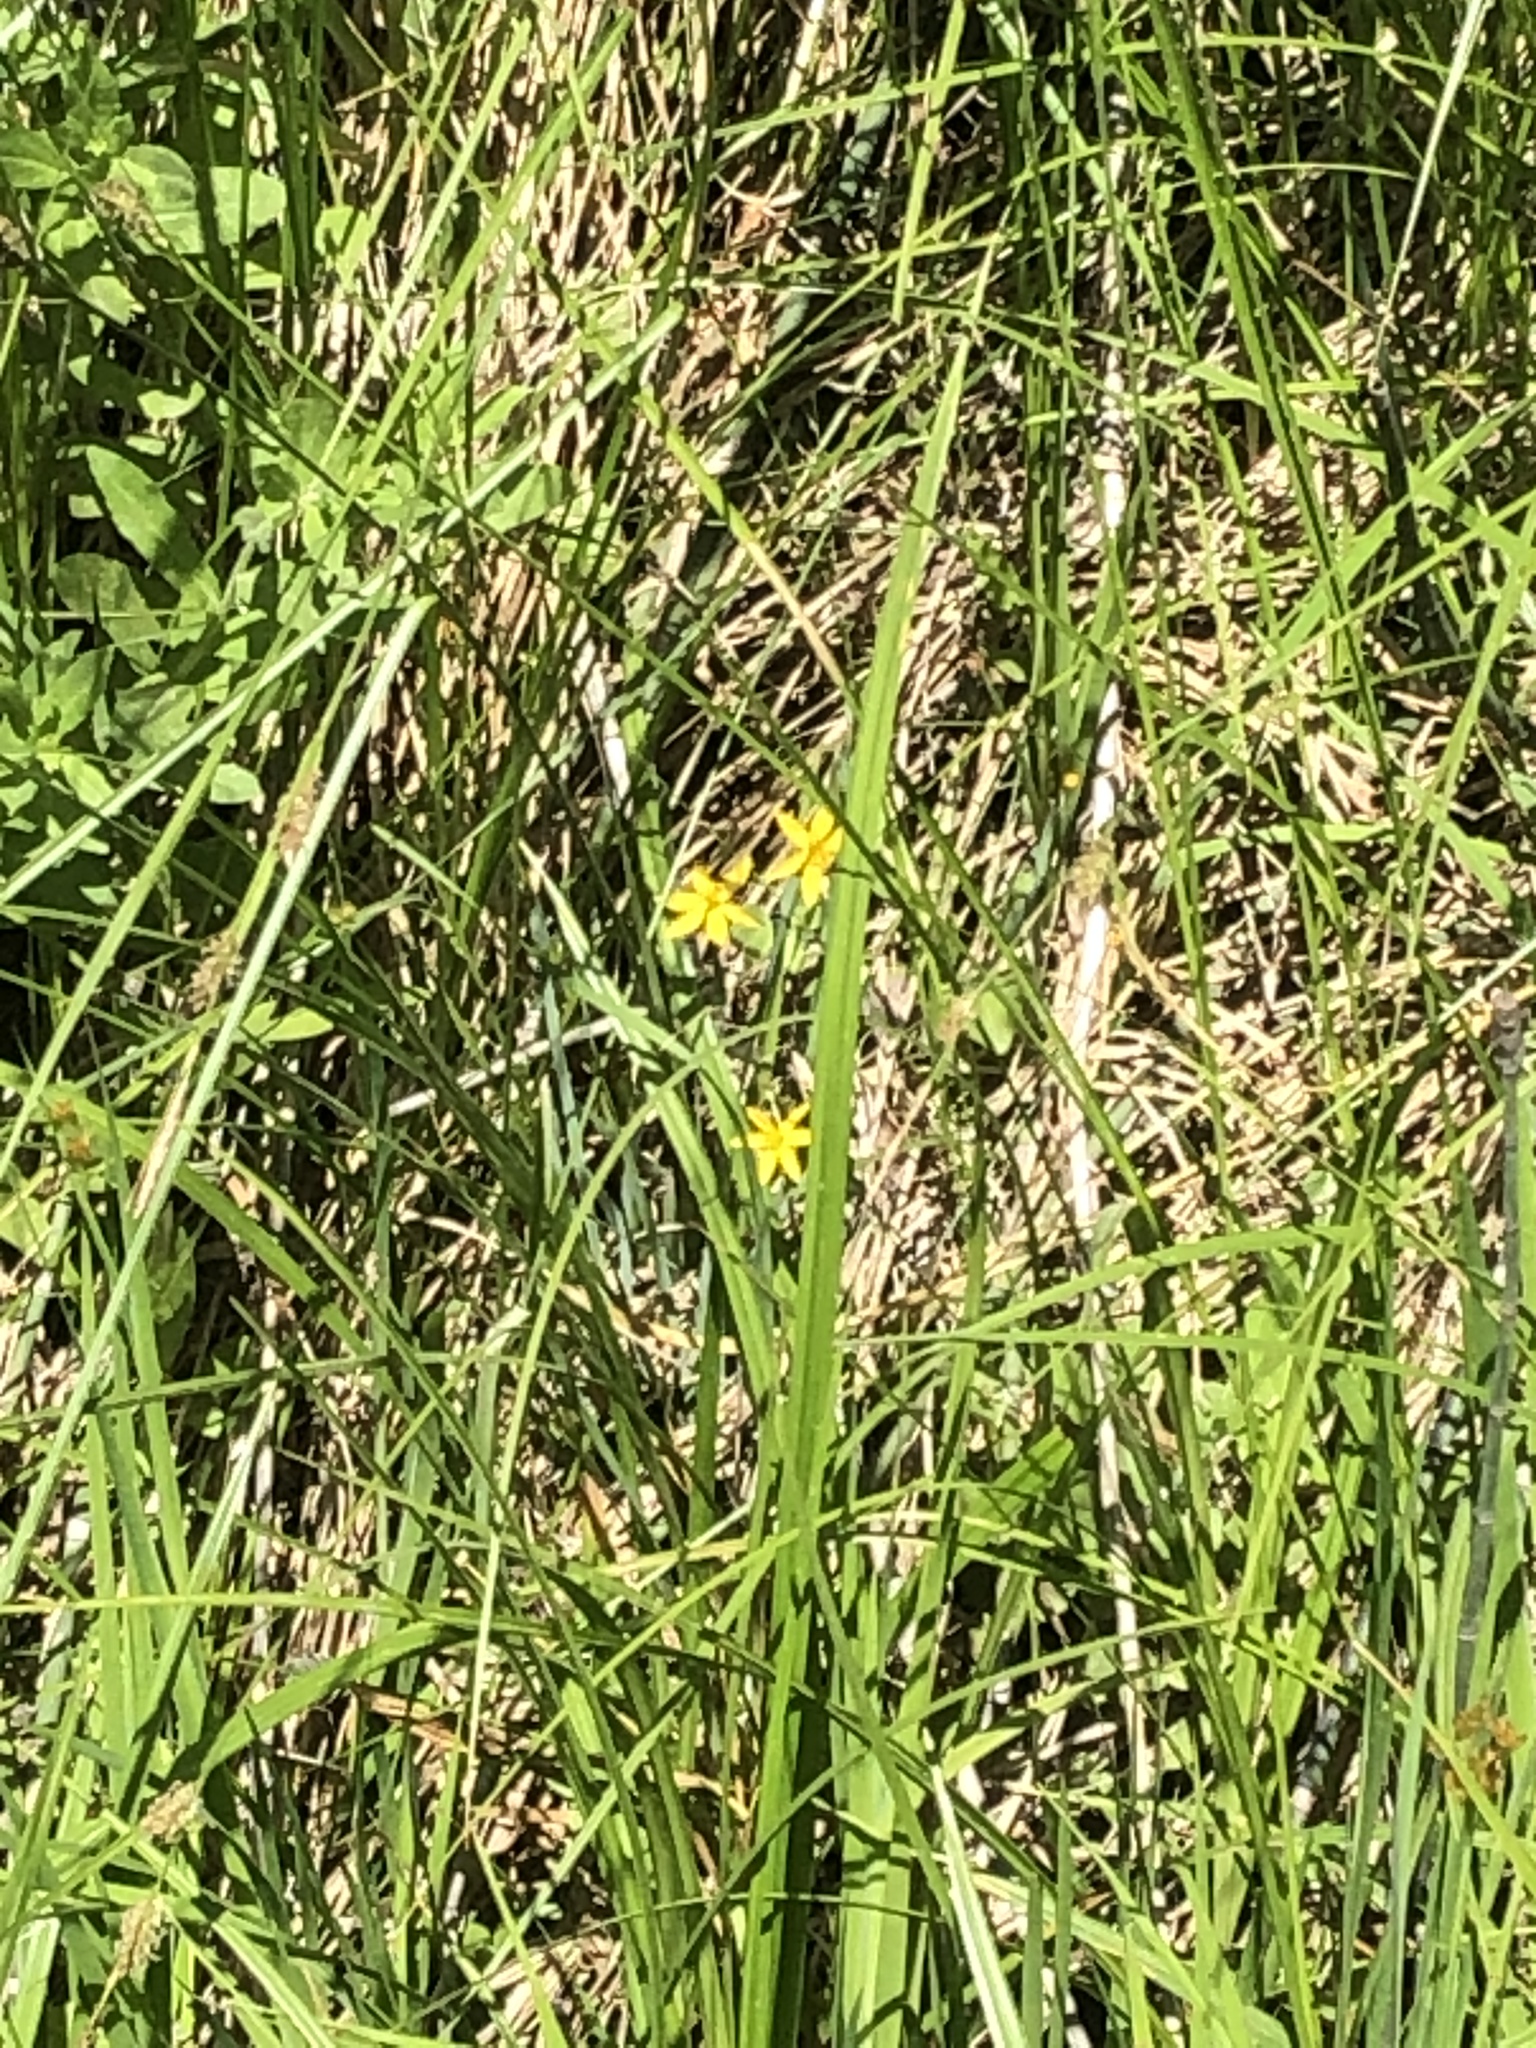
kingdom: Plantae
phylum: Tracheophyta
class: Liliopsida
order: Asparagales
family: Iridaceae
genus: Sisyrinchium
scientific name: Sisyrinchium californicum
